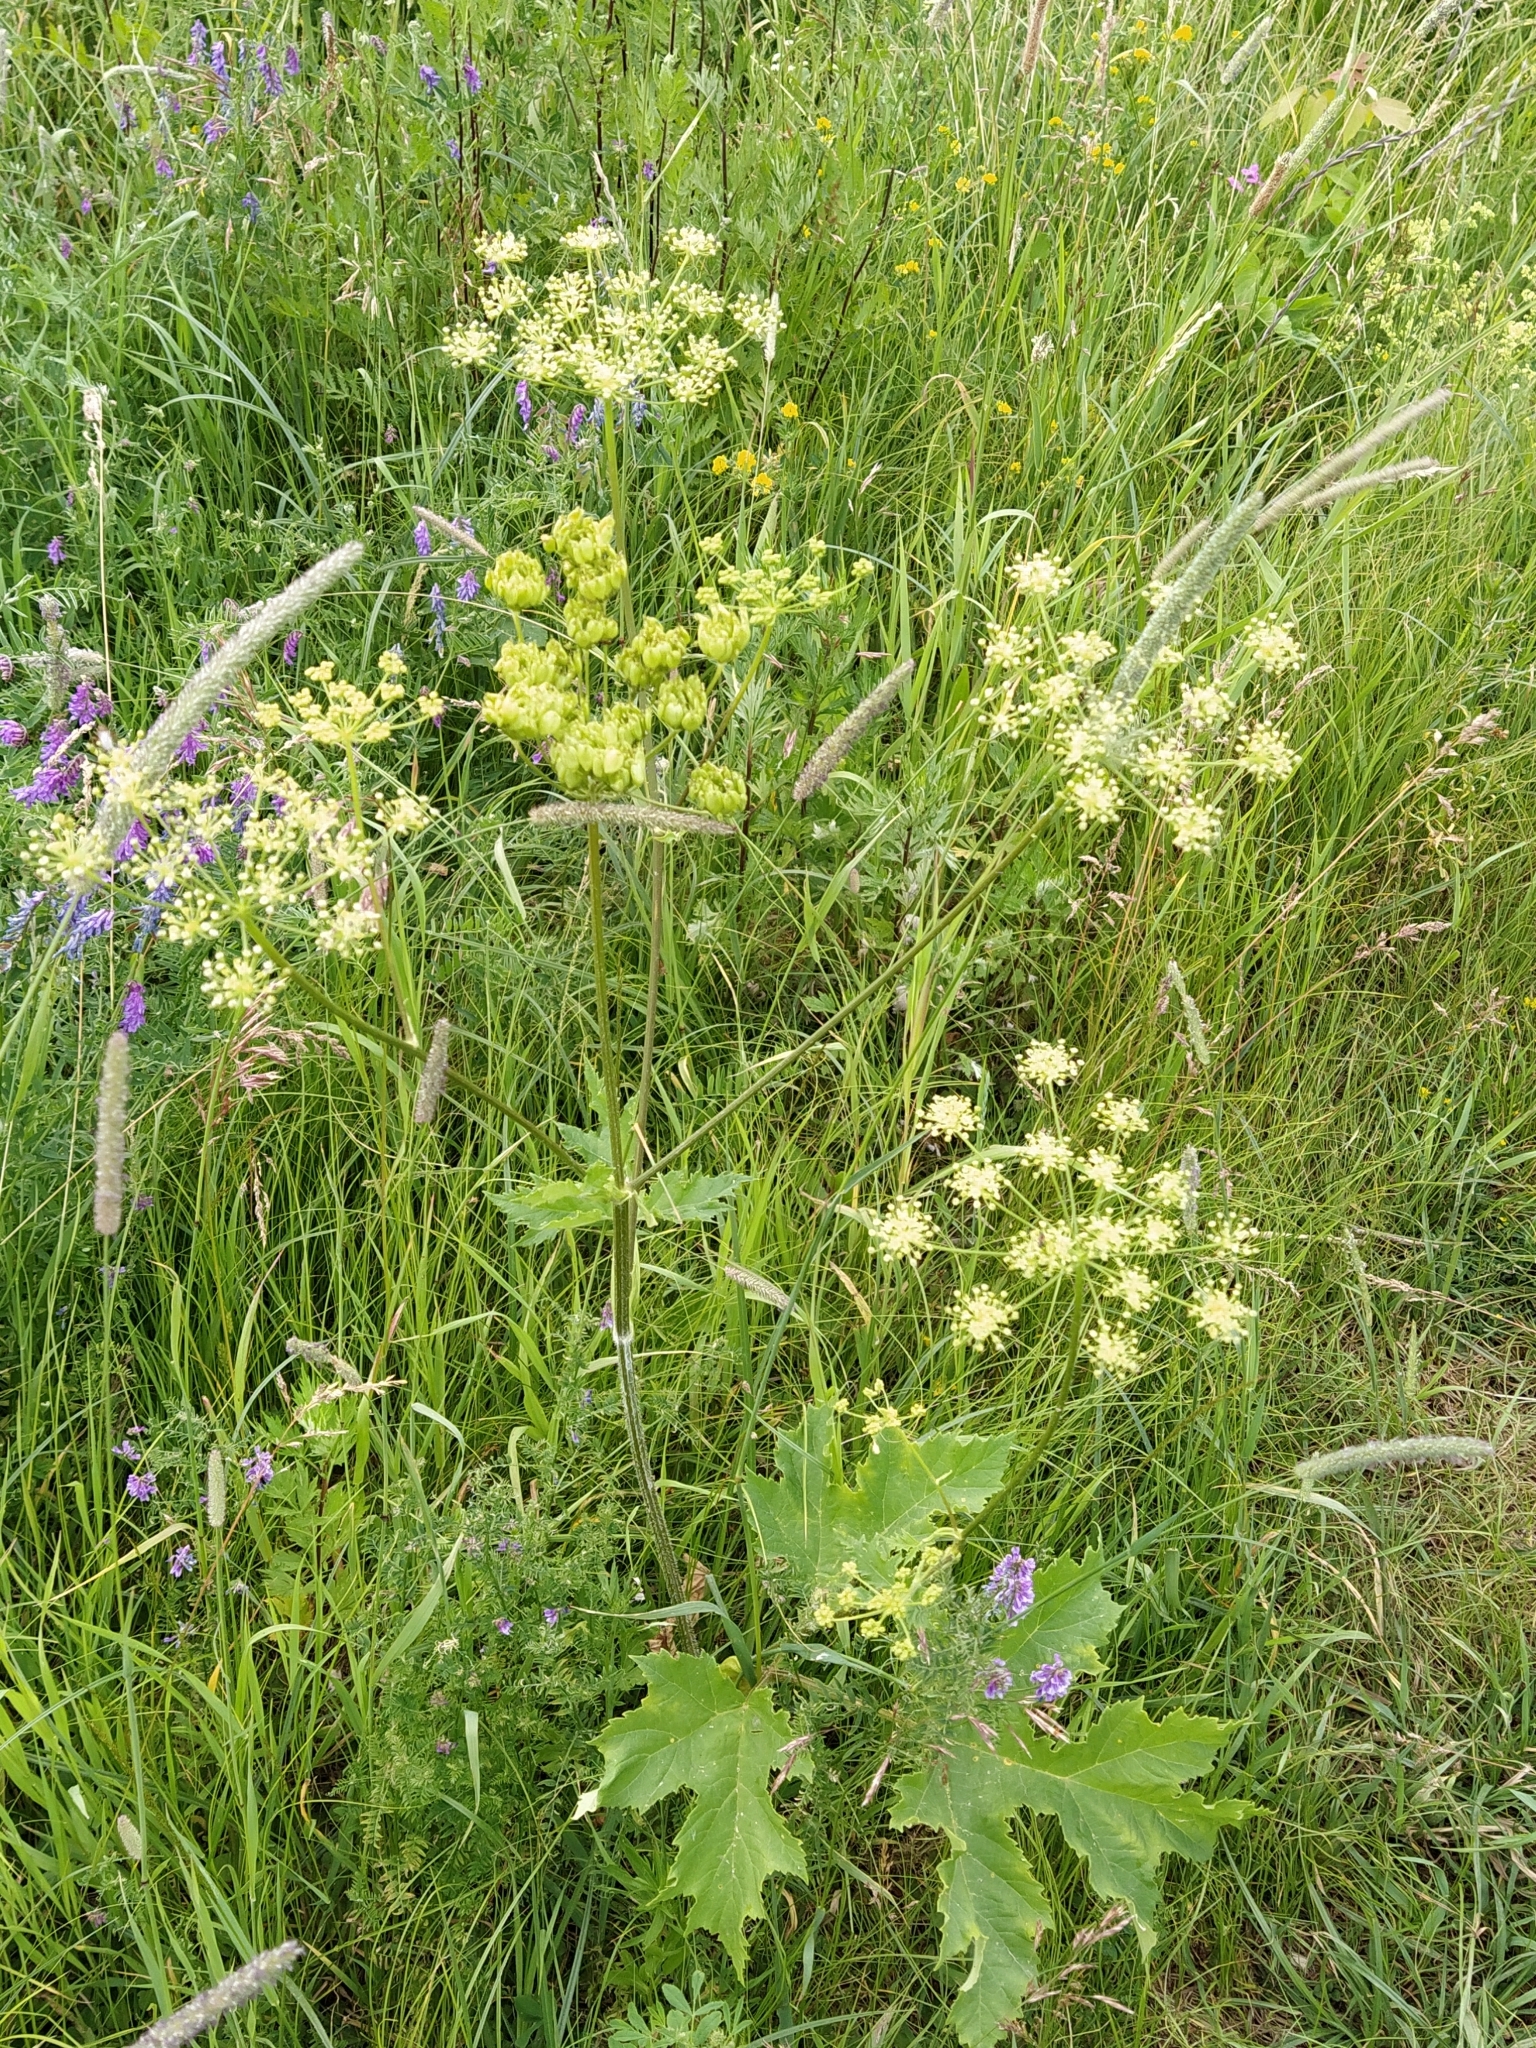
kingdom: Plantae
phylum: Tracheophyta
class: Magnoliopsida
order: Apiales
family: Apiaceae
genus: Heracleum
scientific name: Heracleum sphondylium
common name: Hogweed
